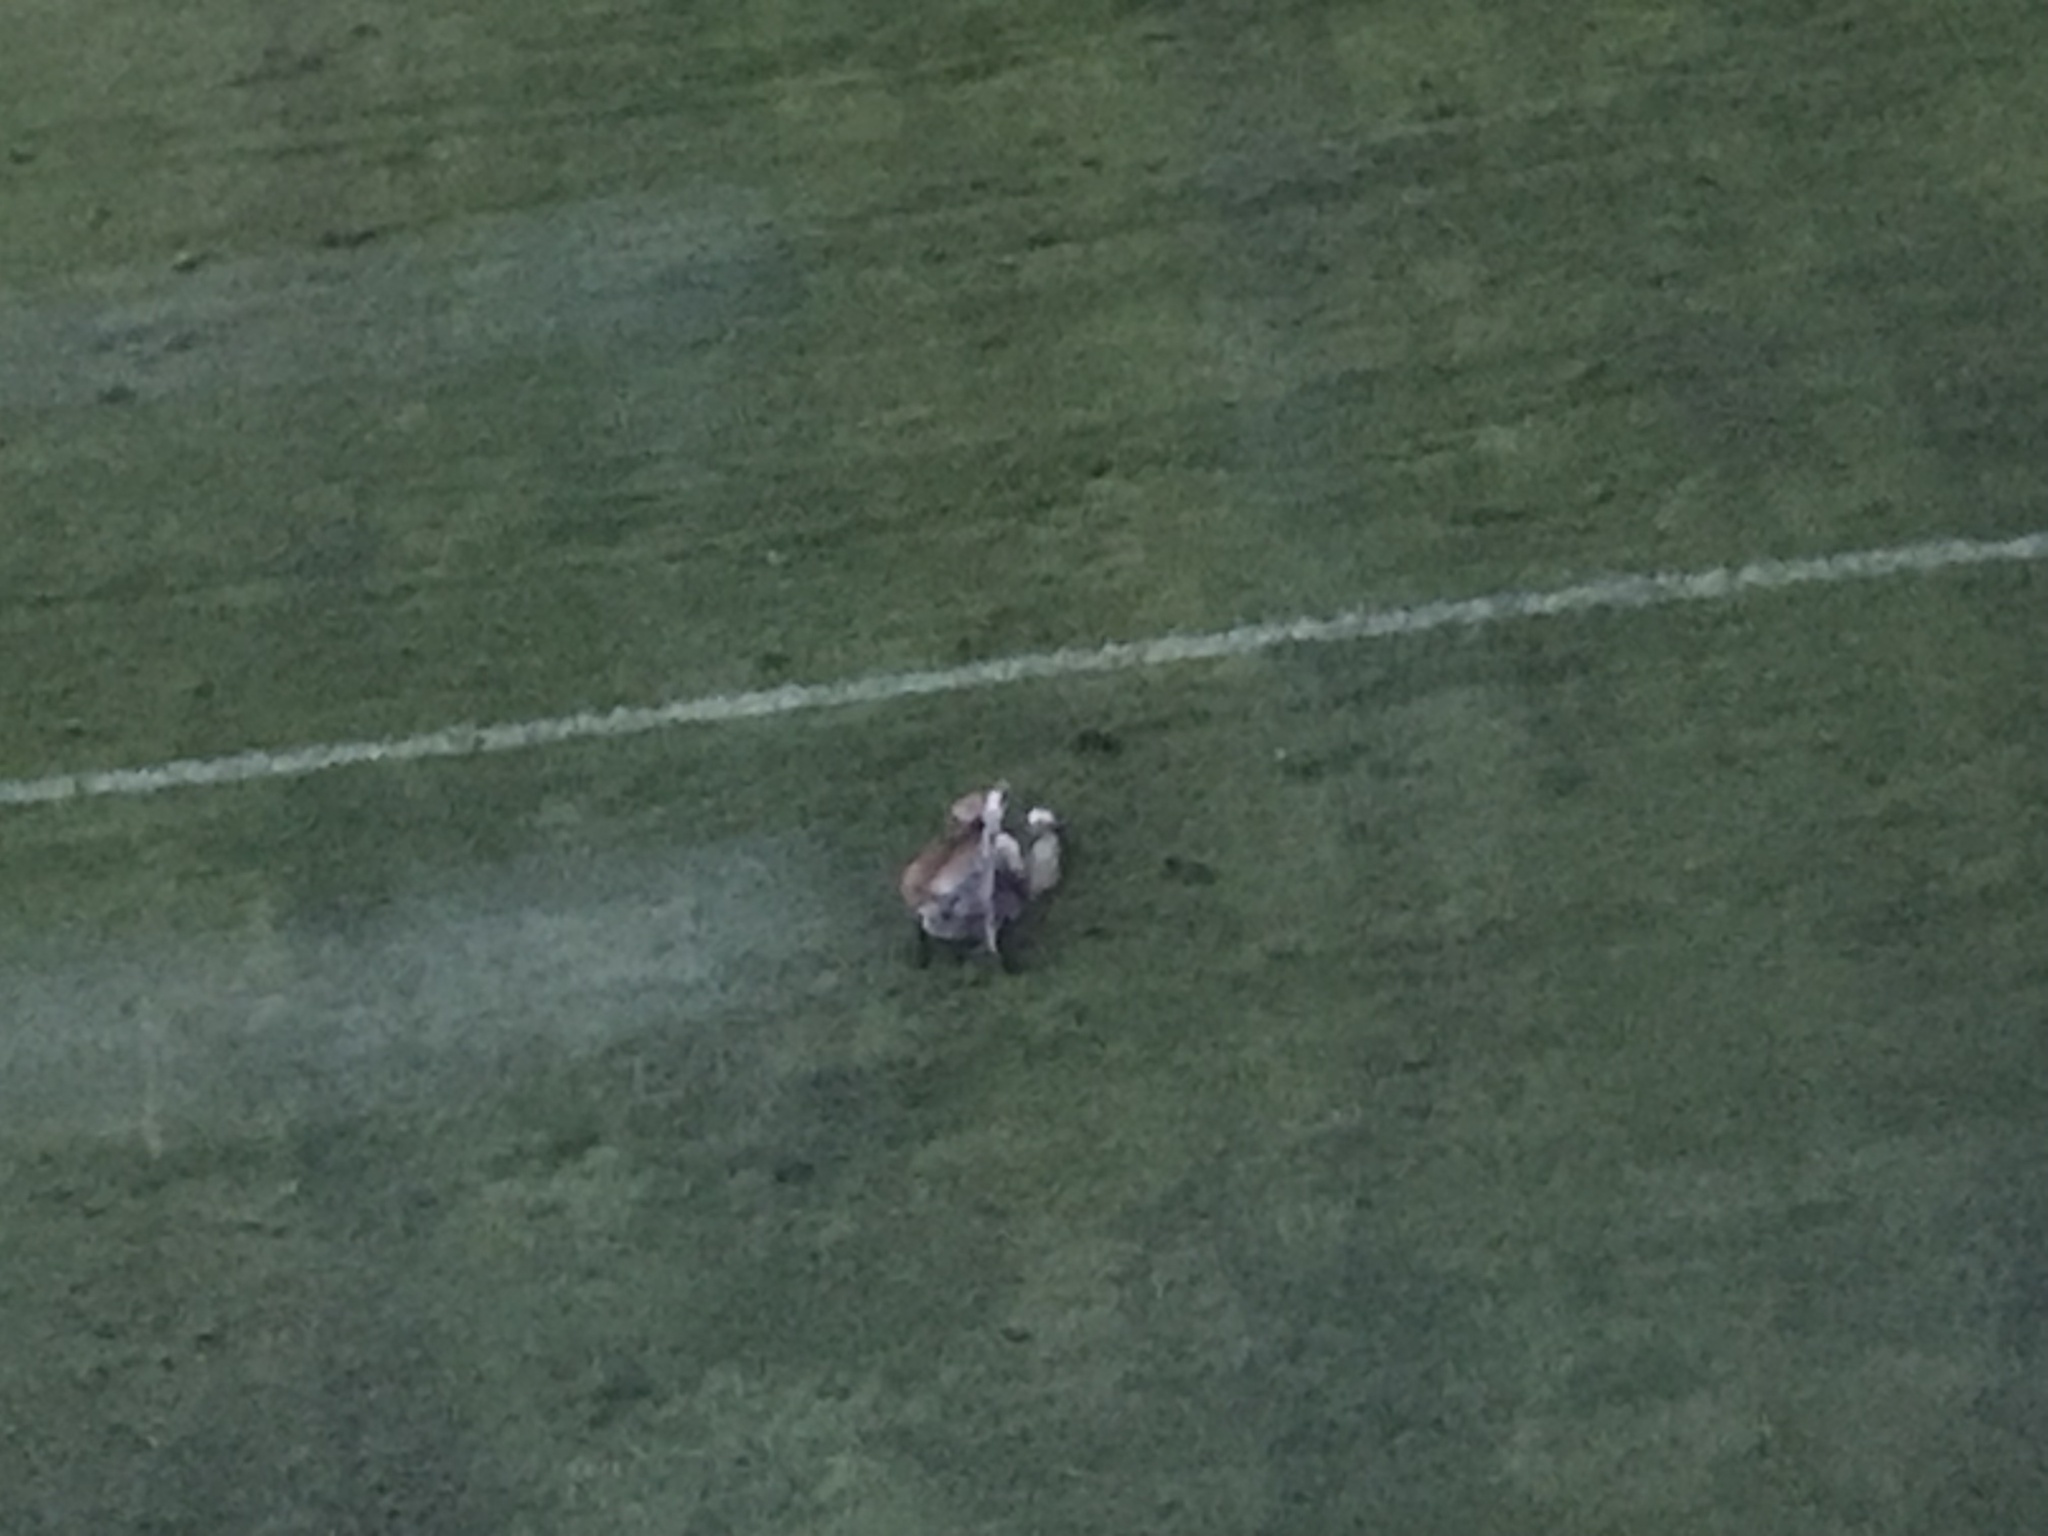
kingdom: Animalia
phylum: Chordata
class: Mammalia
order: Carnivora
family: Canidae
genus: Vulpes
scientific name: Vulpes vulpes
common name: Red fox
